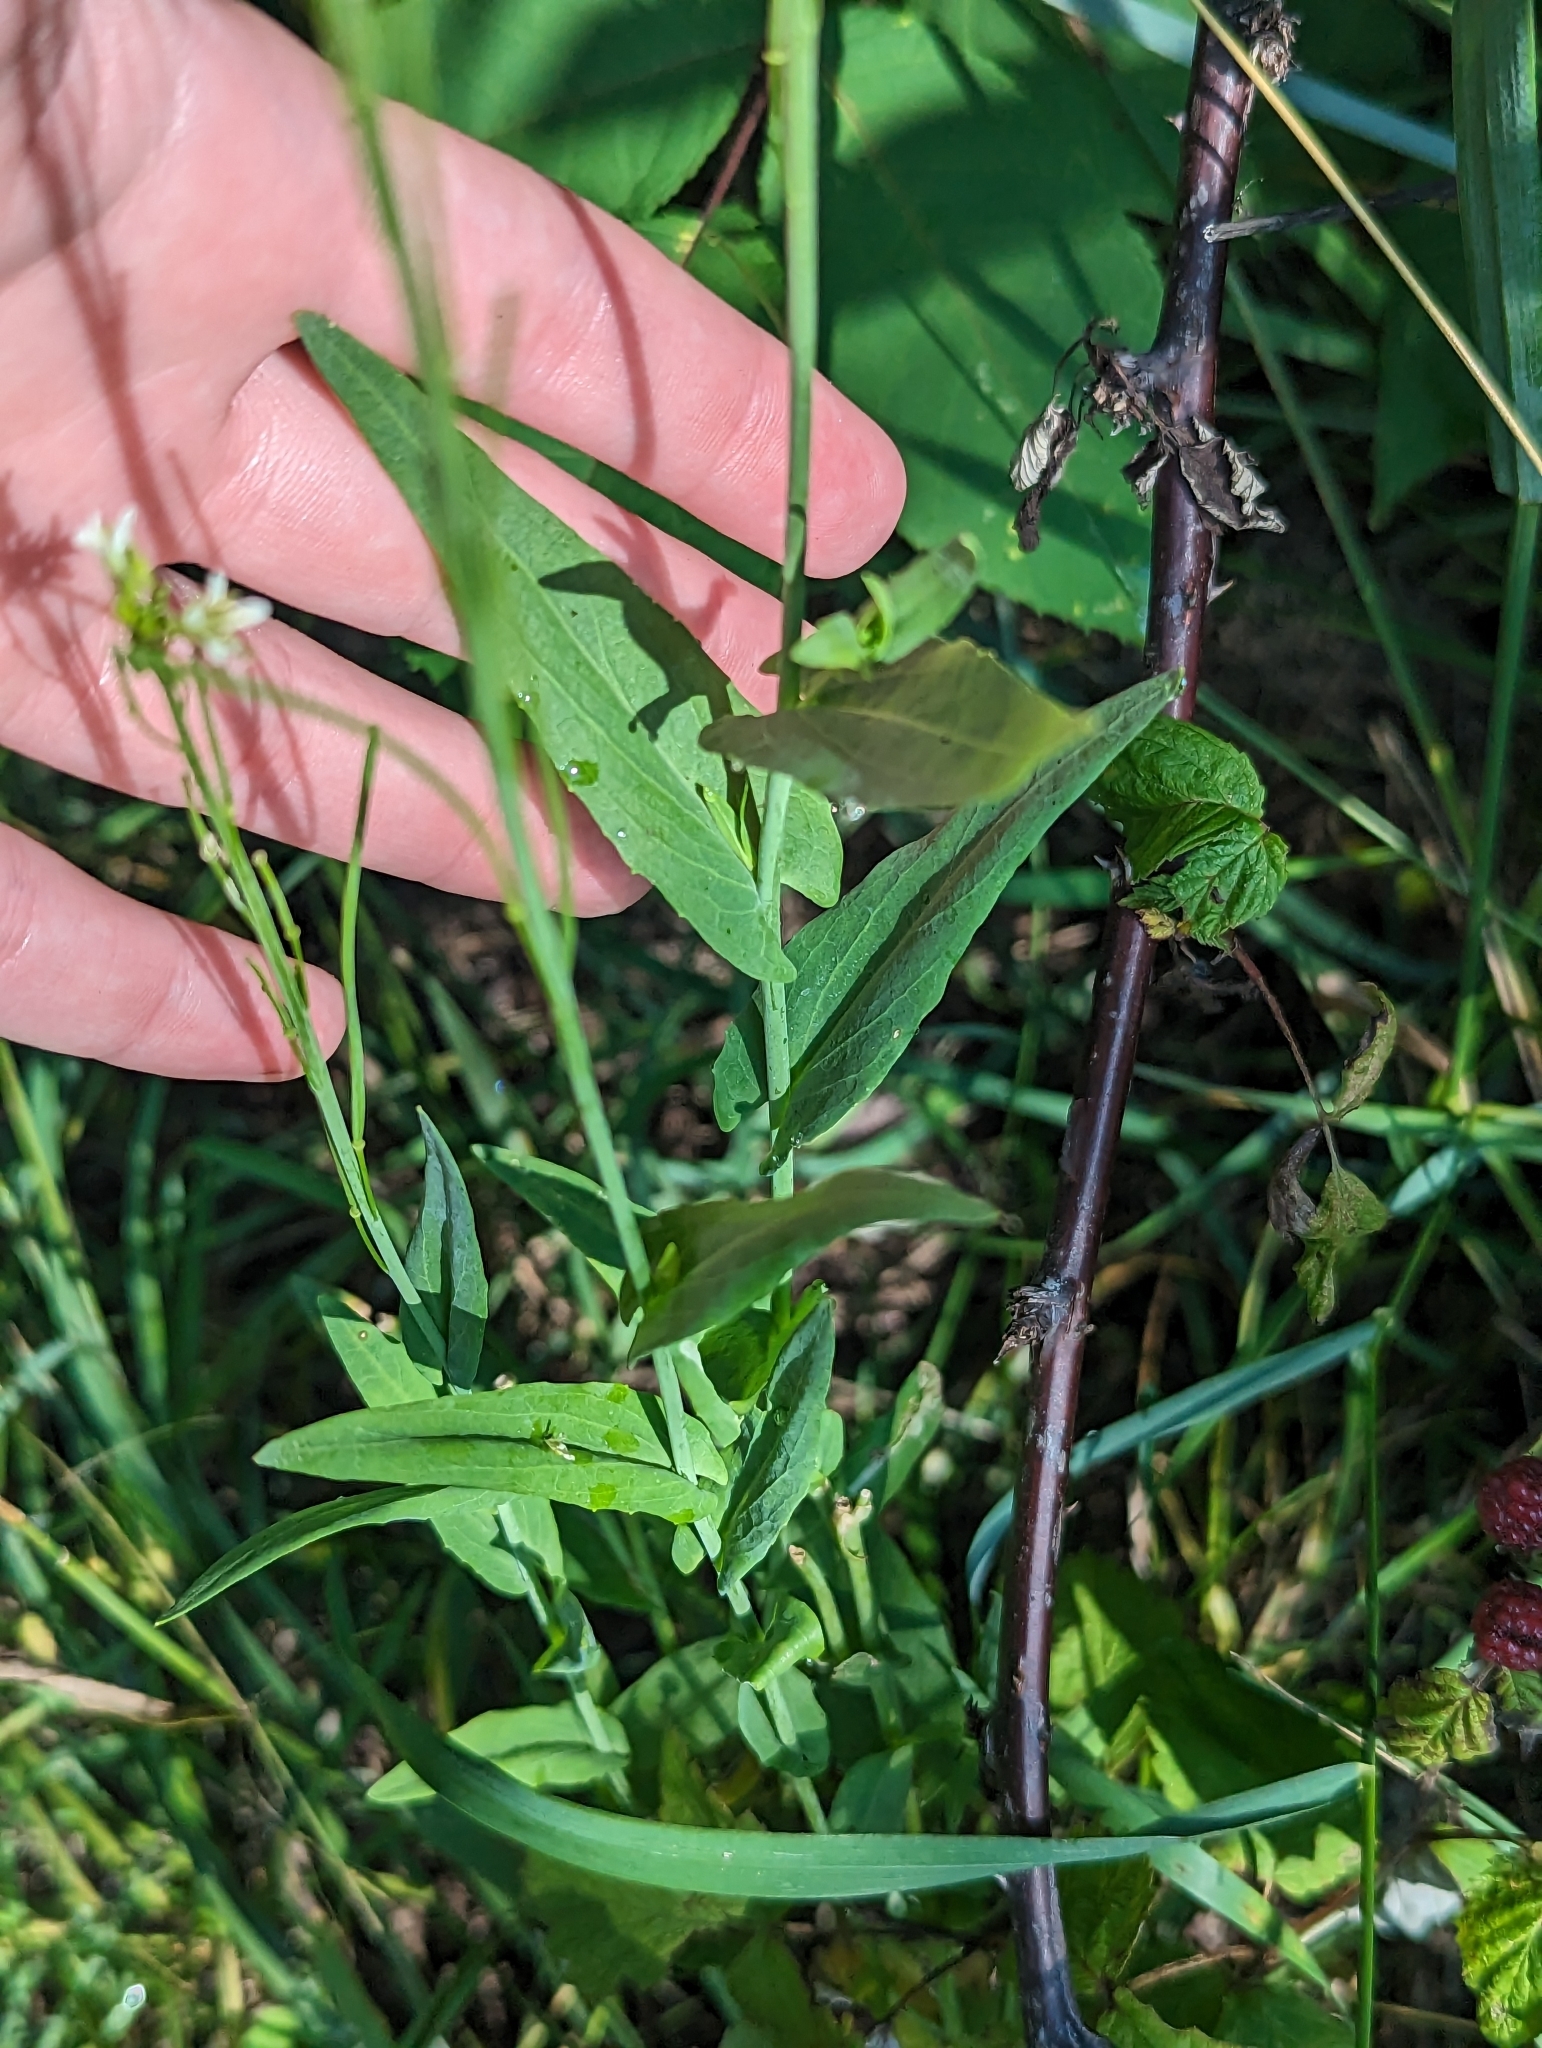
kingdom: Plantae
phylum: Tracheophyta
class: Magnoliopsida
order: Brassicales
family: Brassicaceae
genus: Turritis
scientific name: Turritis glabra
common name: Tower rockcress
